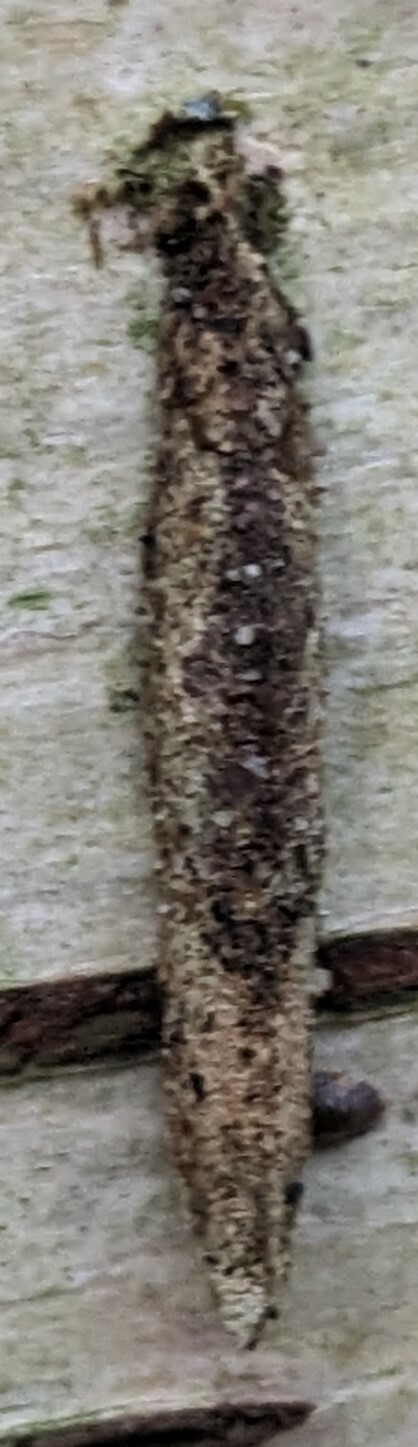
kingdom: Animalia
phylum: Arthropoda
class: Insecta
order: Lepidoptera
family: Psychidae
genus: Taleporia
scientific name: Taleporia tubulosa
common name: Brown smoke
